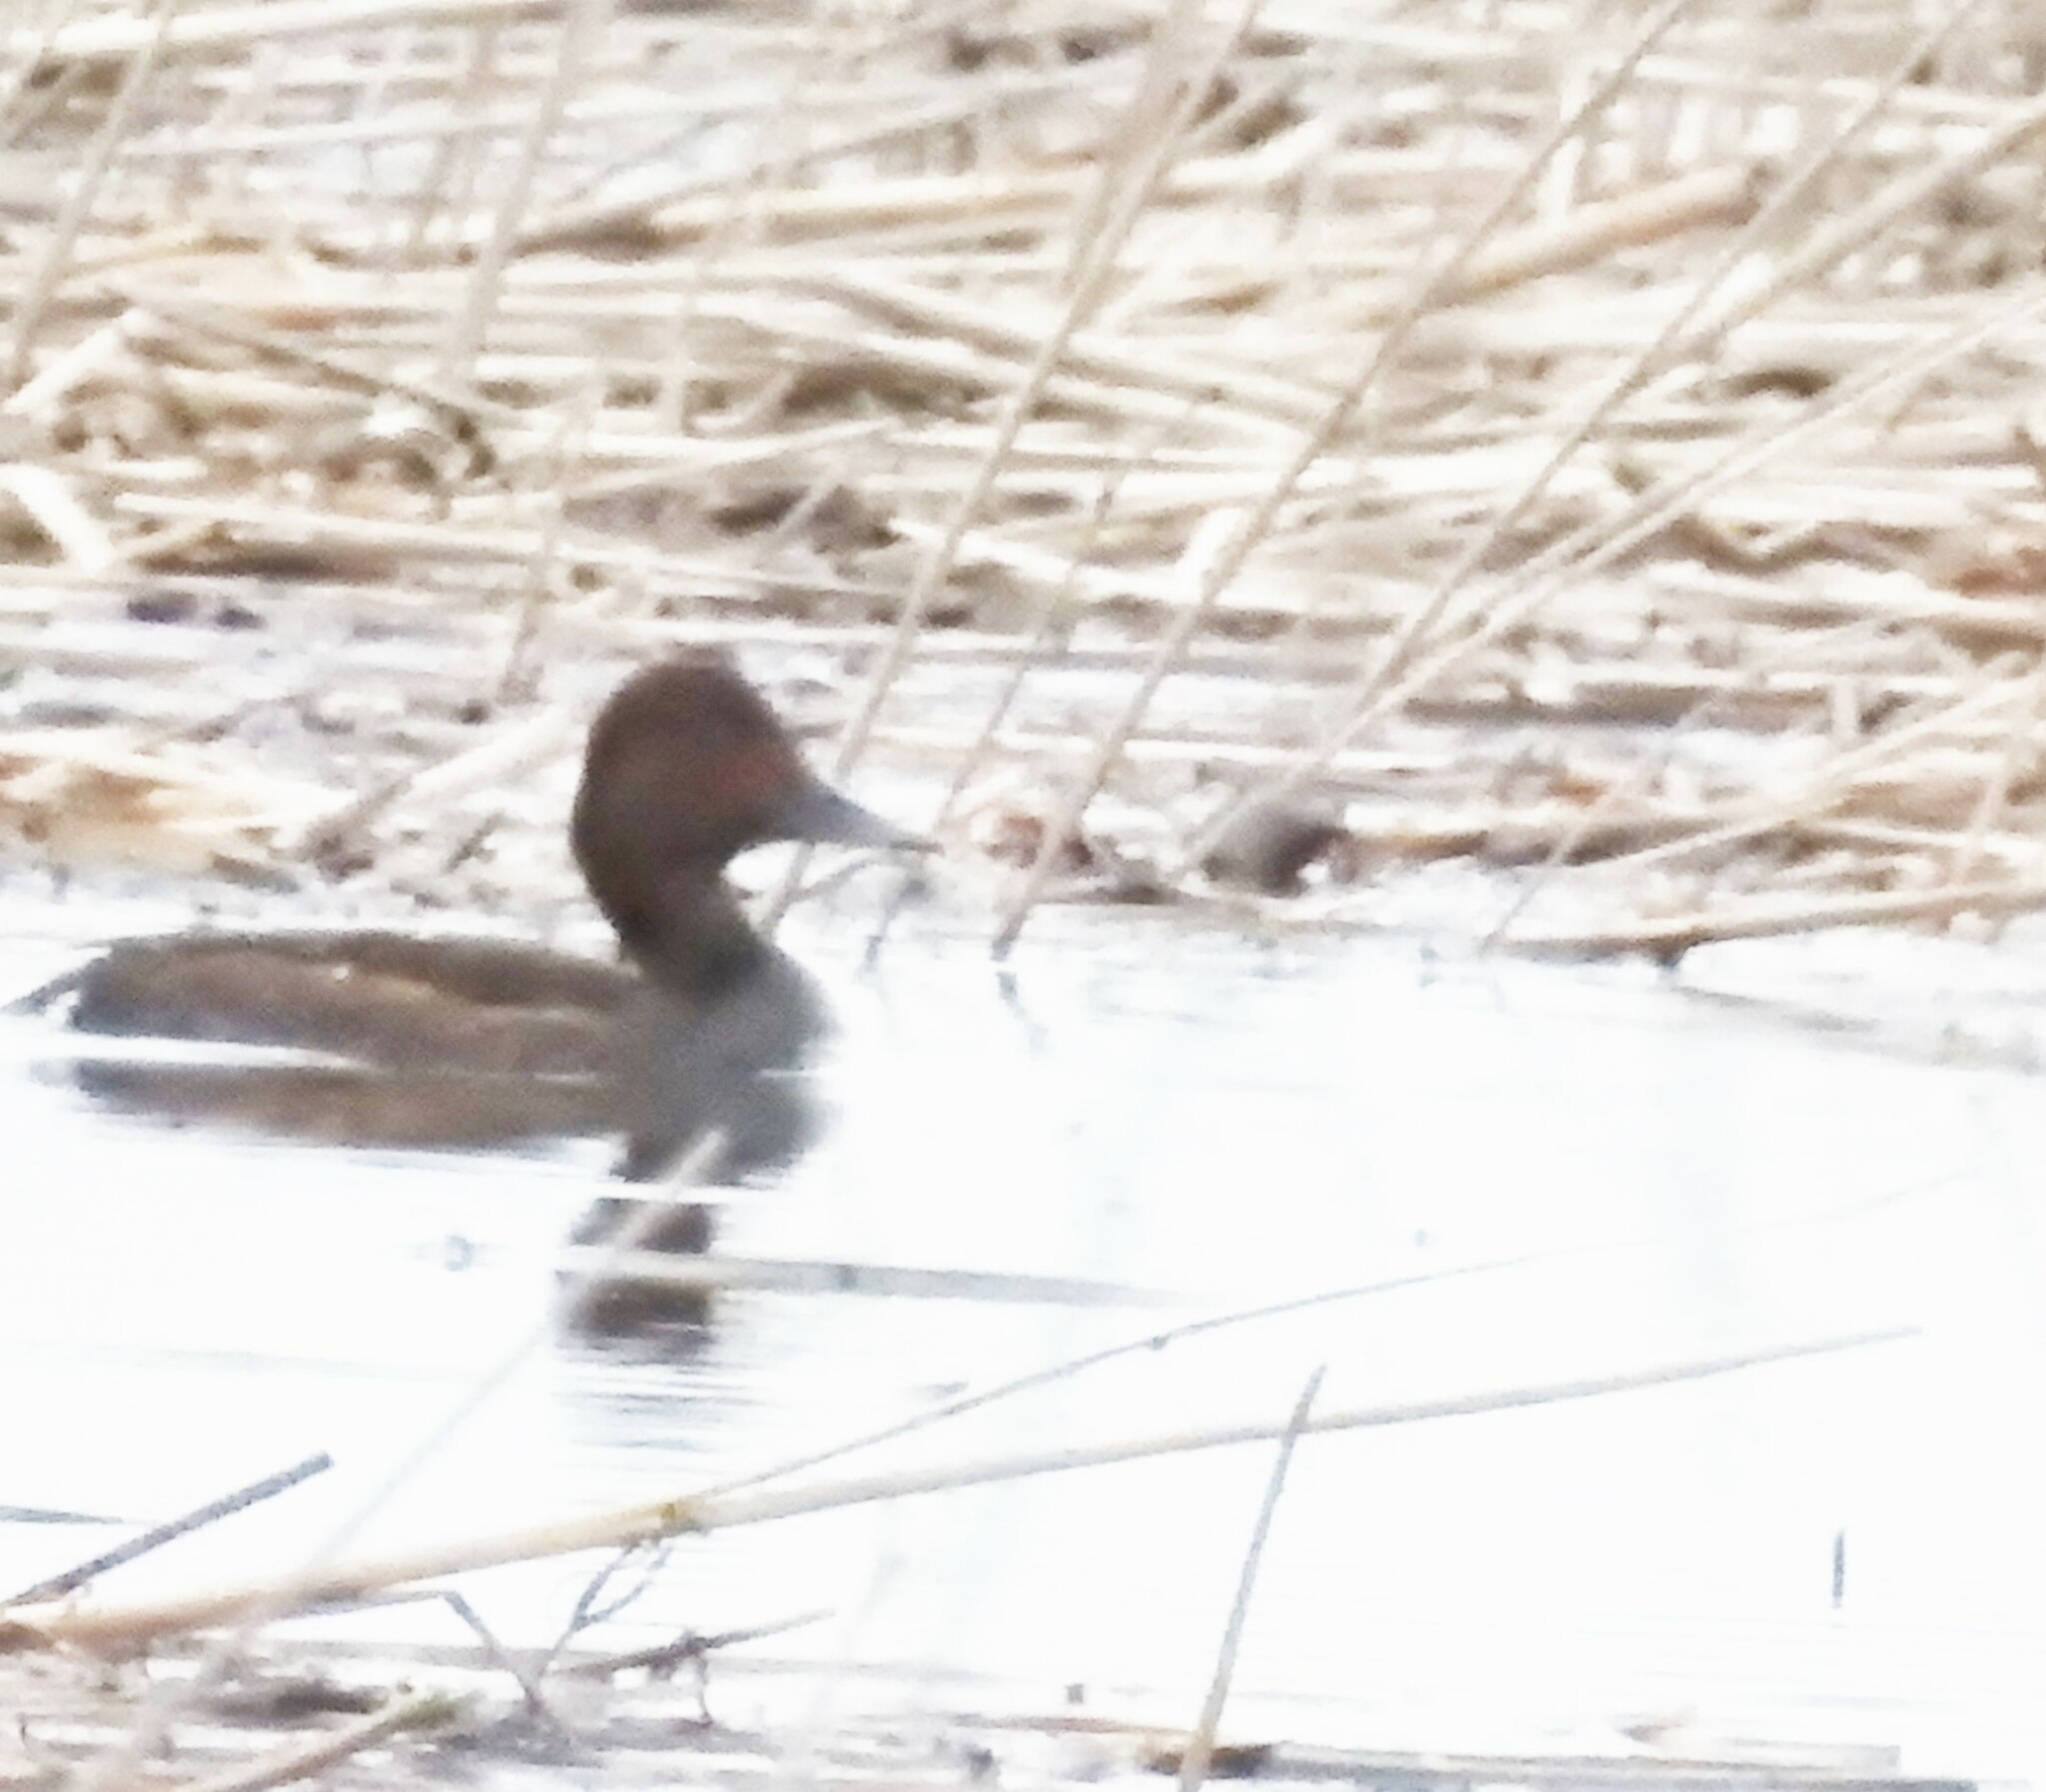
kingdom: Animalia
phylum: Chordata
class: Aves
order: Anseriformes
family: Anatidae
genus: Aythya
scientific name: Aythya nyroca
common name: Ferruginous duck
